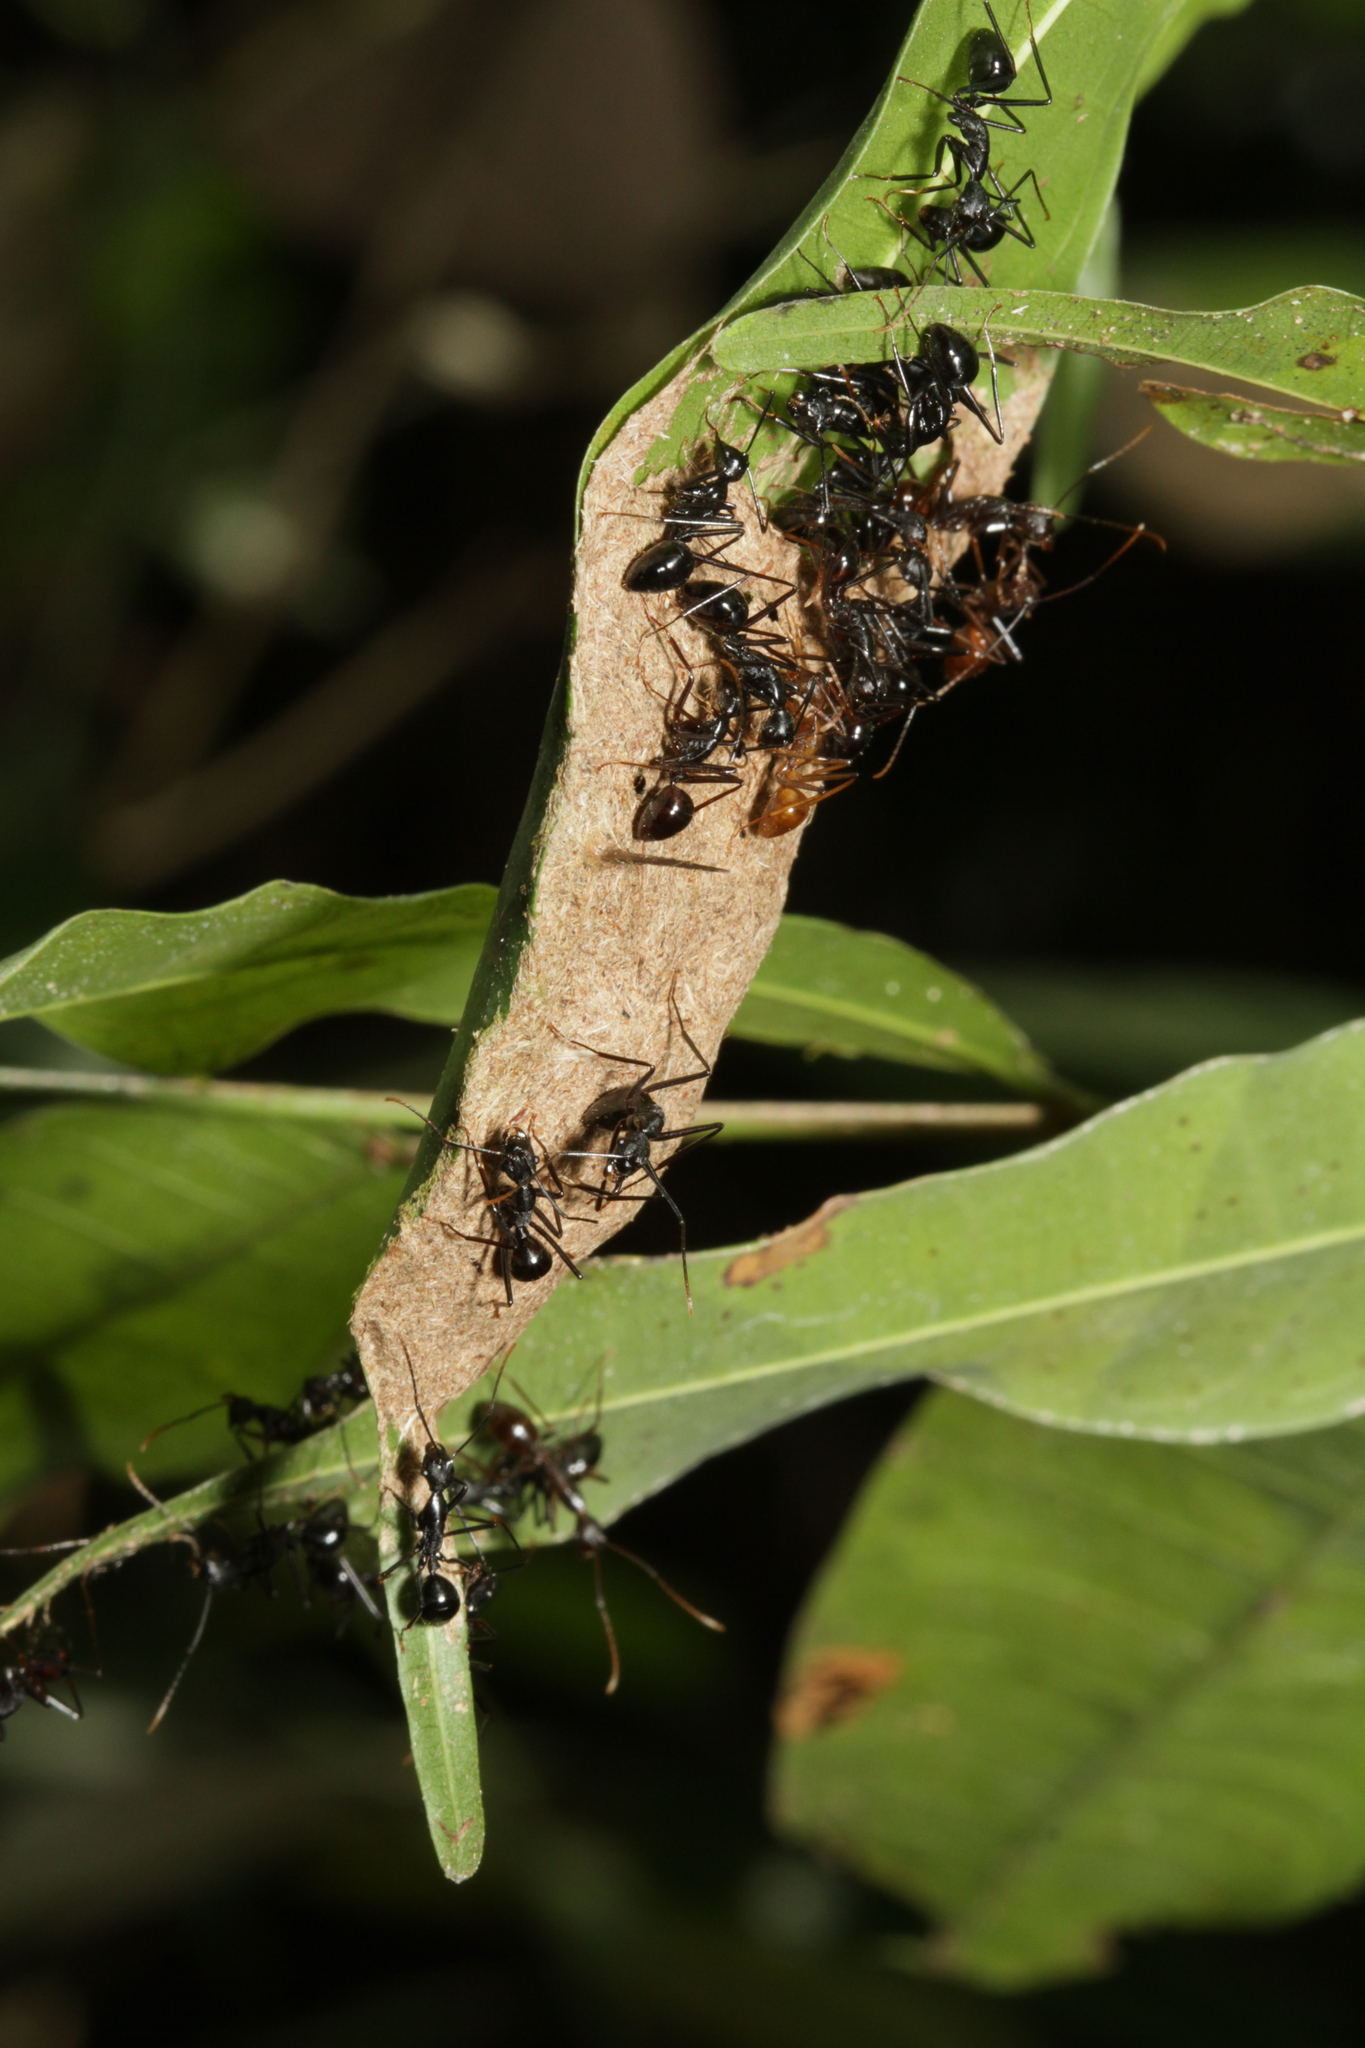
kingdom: Animalia
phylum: Arthropoda
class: Insecta
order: Hymenoptera
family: Formicidae
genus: Dendromyrmex
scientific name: Dendromyrmex apicalis
